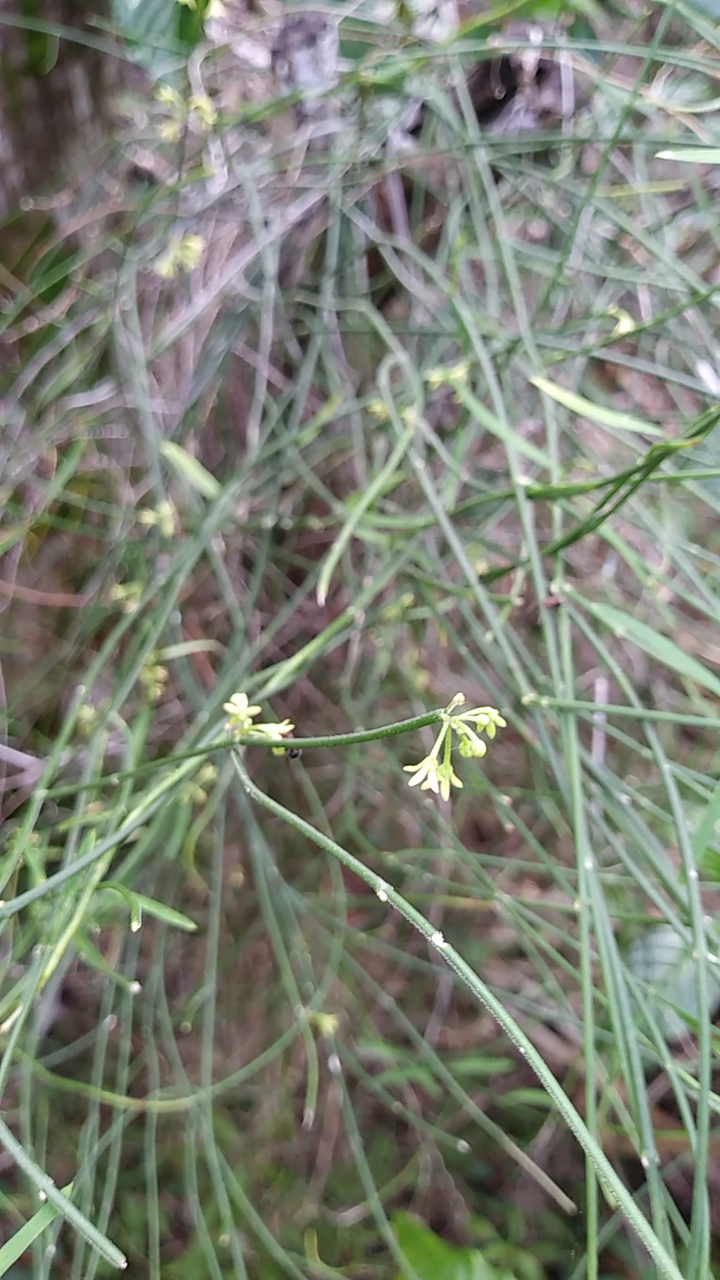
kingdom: Plantae
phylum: Tracheophyta
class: Magnoliopsida
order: Gentianales
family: Apocynaceae
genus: Orthosia
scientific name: Orthosia scoparia
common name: Leafless swallow-wort
